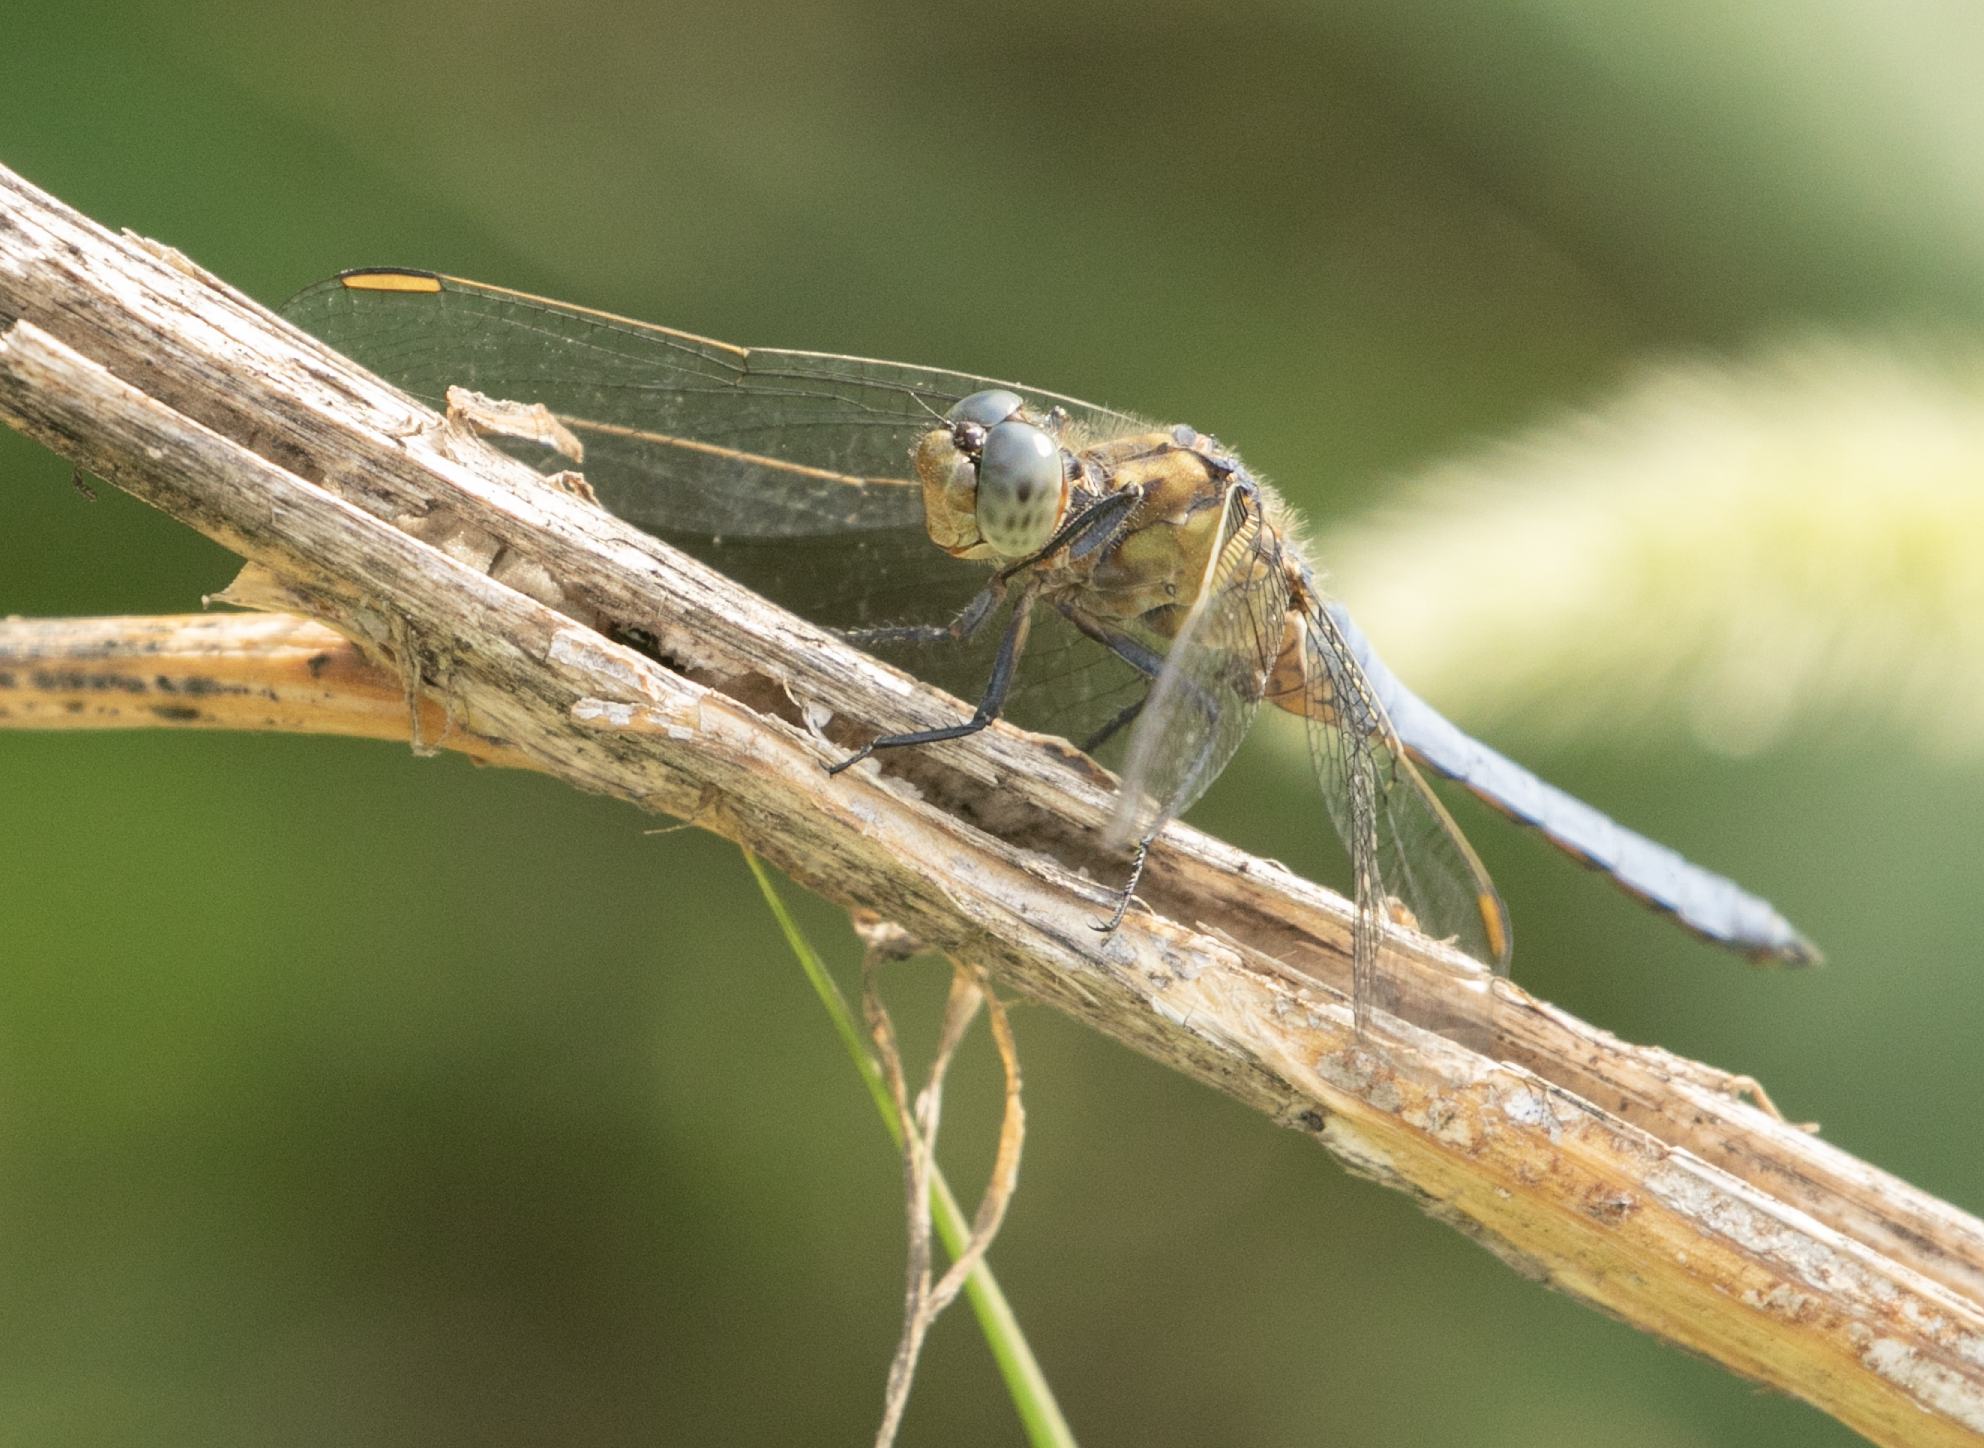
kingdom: Animalia
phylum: Arthropoda
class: Insecta
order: Odonata
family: Libellulidae
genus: Orthetrum
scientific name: Orthetrum coerulescens
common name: Keeled skimmer
